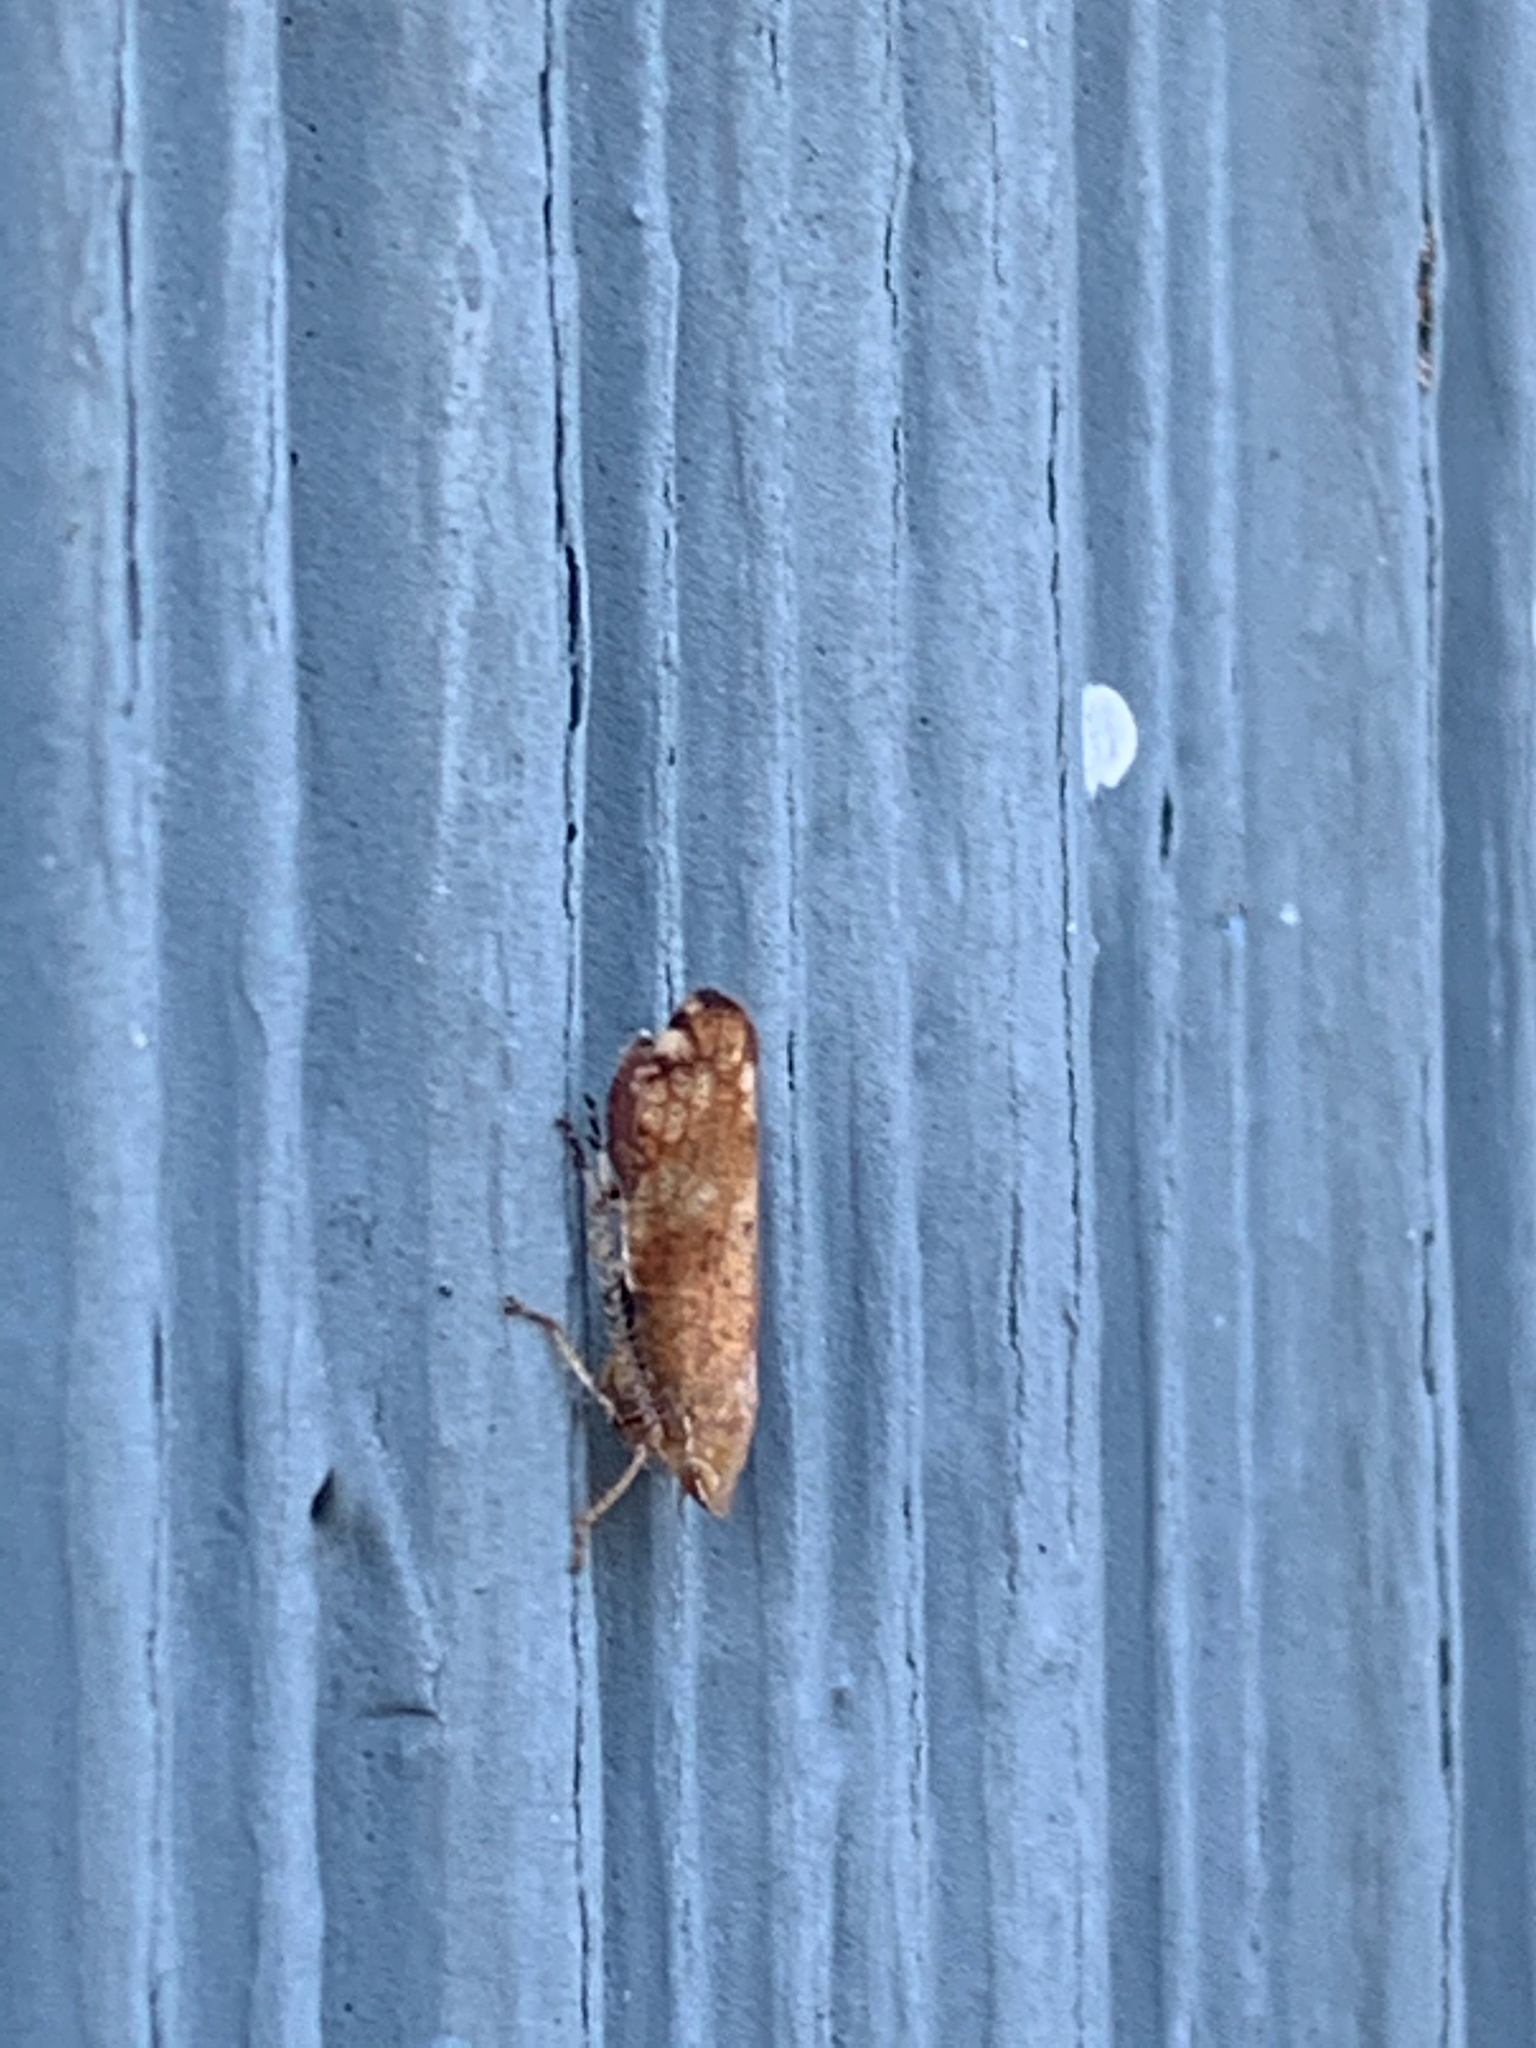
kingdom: Animalia
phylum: Arthropoda
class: Insecta
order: Hemiptera
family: Cicadellidae
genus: Fieberiella
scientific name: Fieberiella florii
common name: Flor’s leafhopper
